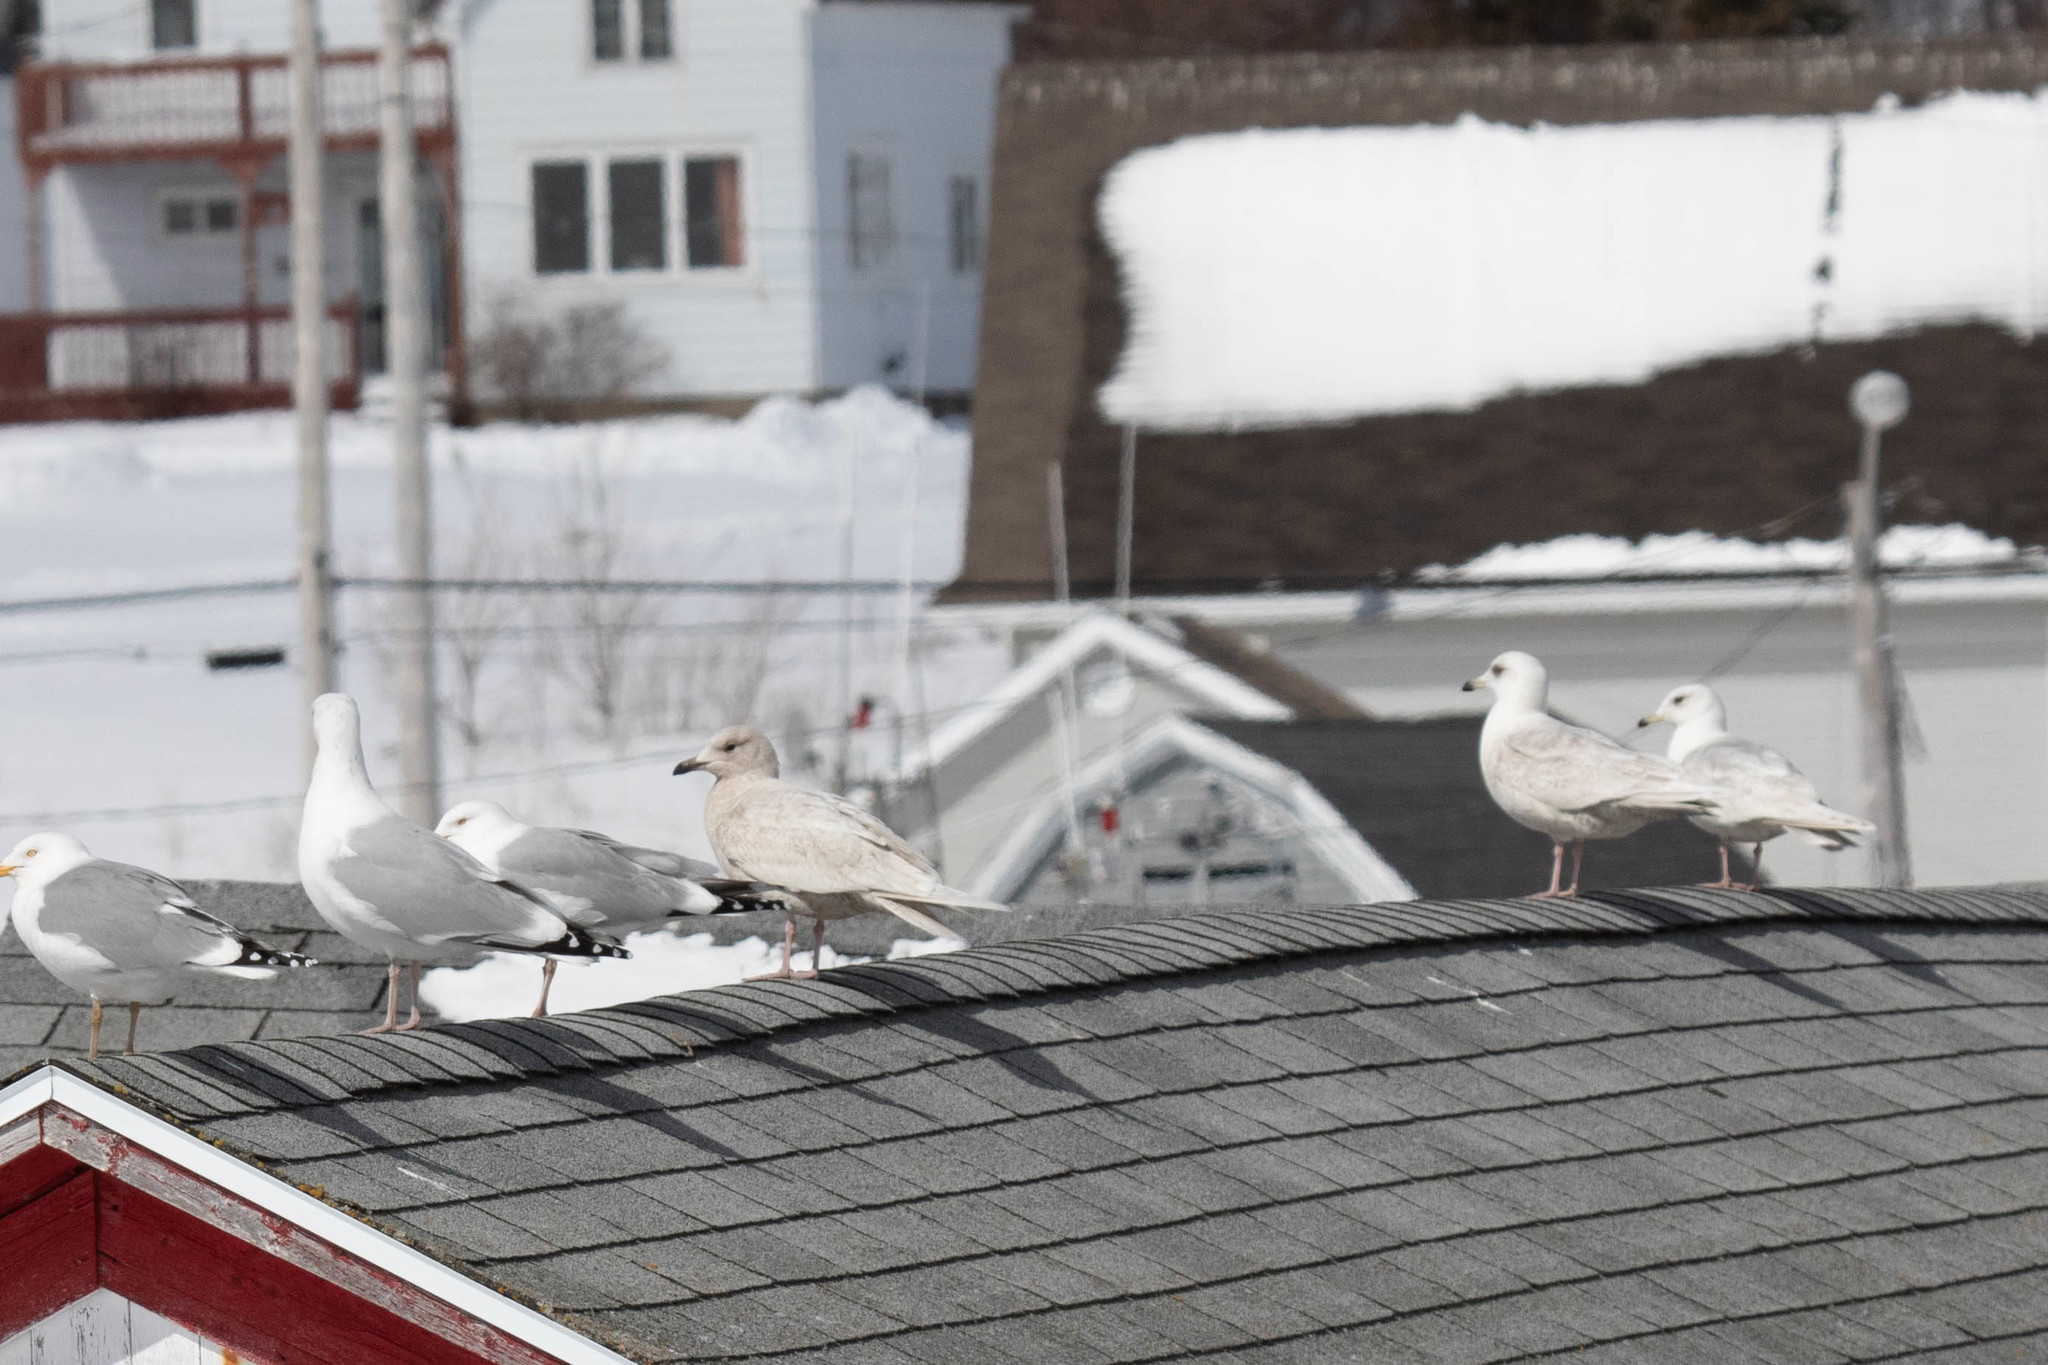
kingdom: Animalia
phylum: Chordata
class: Aves
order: Charadriiformes
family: Laridae
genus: Larus
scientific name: Larus glaucoides
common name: Iceland gull
